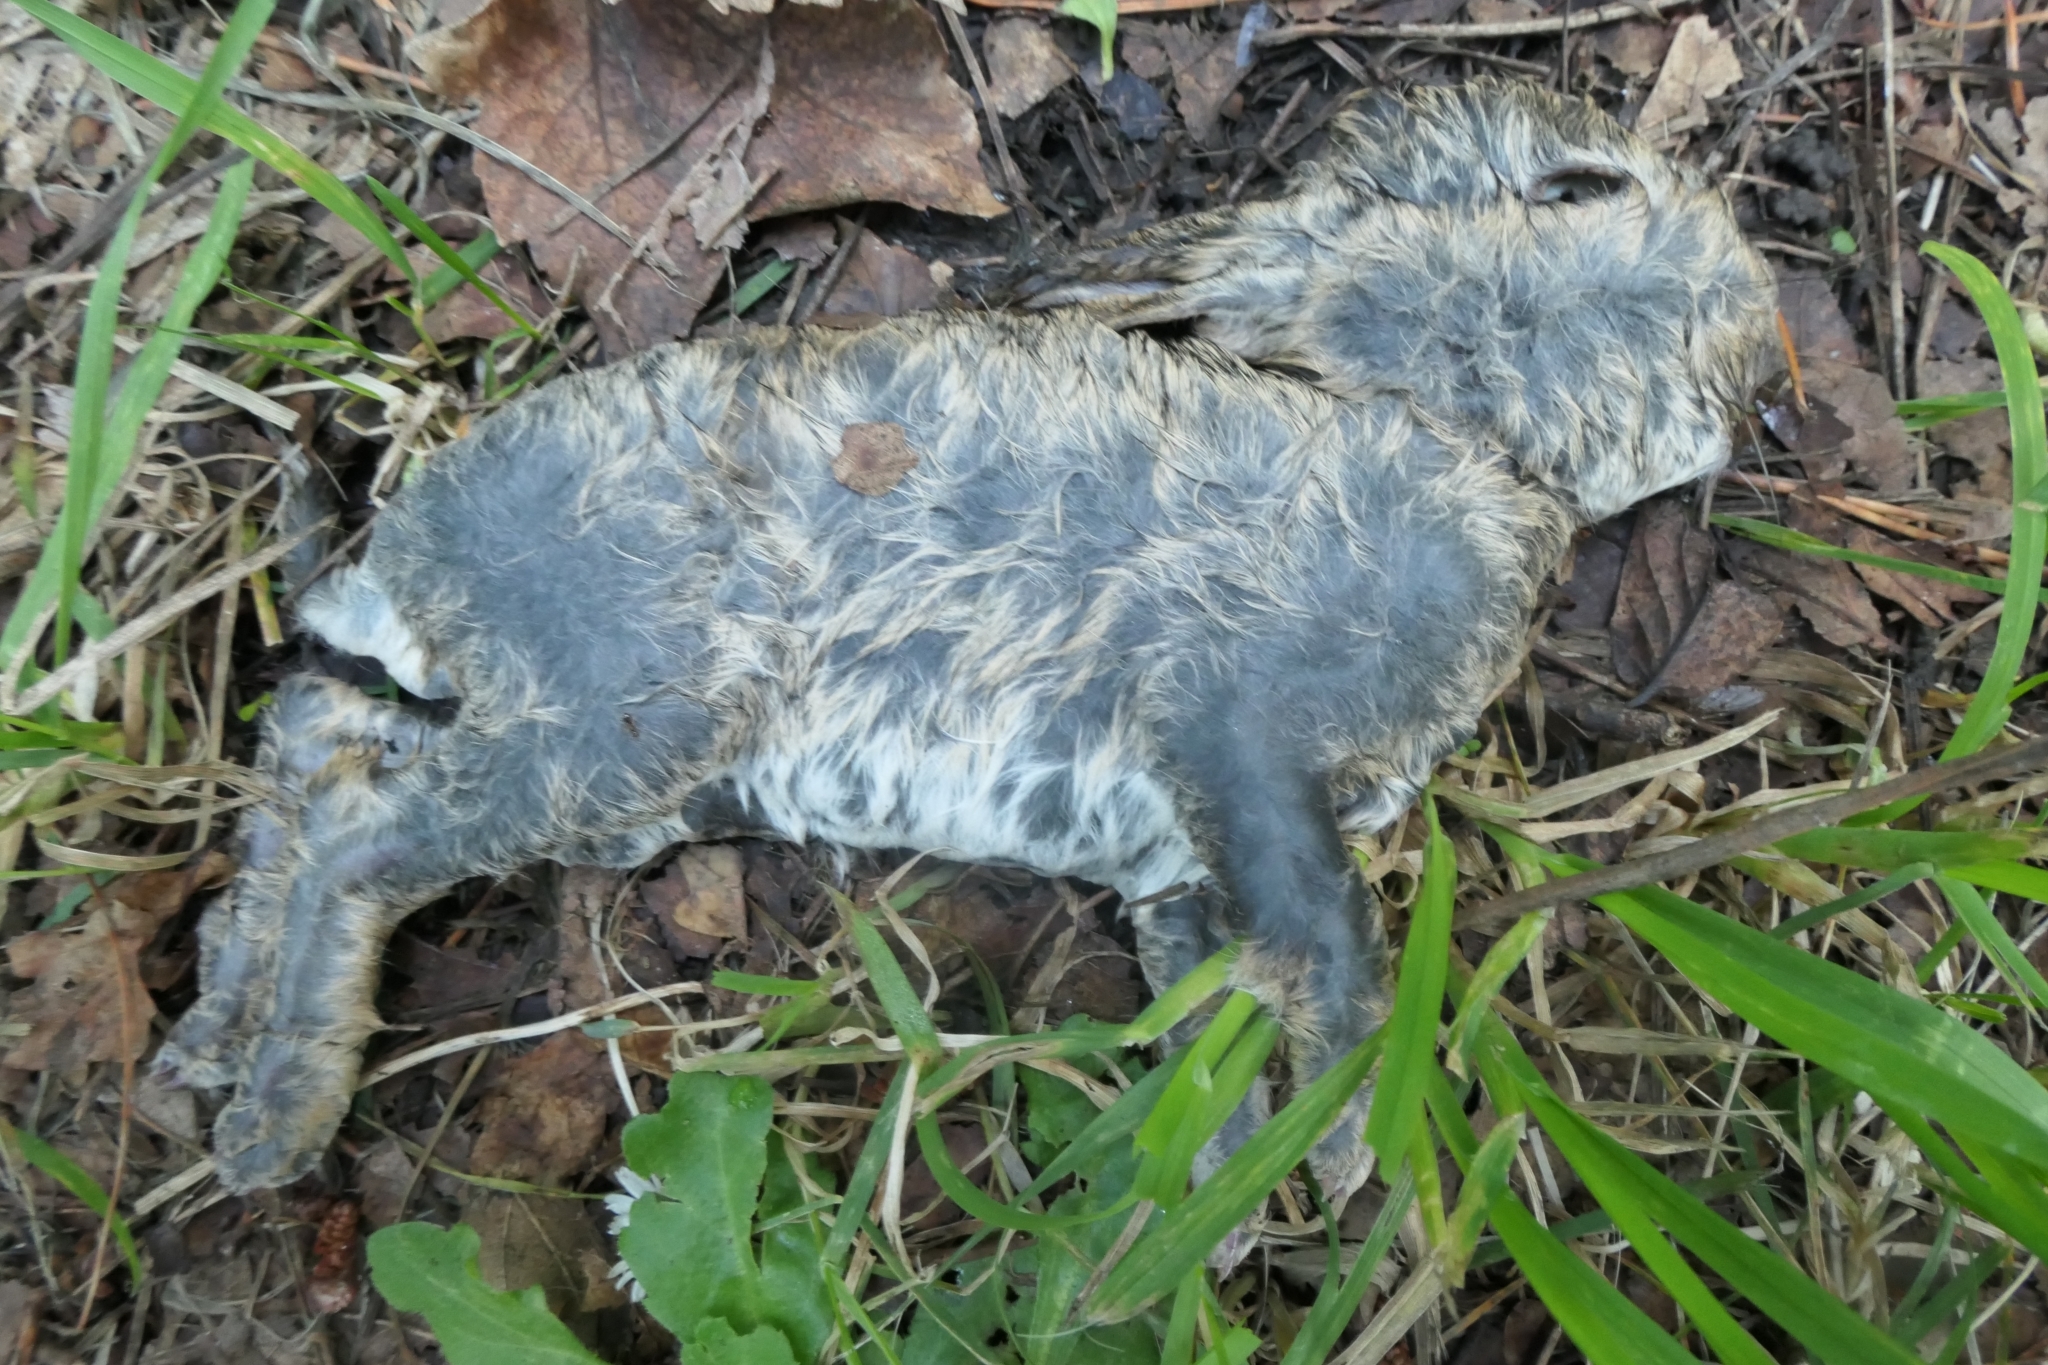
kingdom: Animalia
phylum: Chordata
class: Mammalia
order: Lagomorpha
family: Leporidae
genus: Oryctolagus
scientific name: Oryctolagus cuniculus
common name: European rabbit
